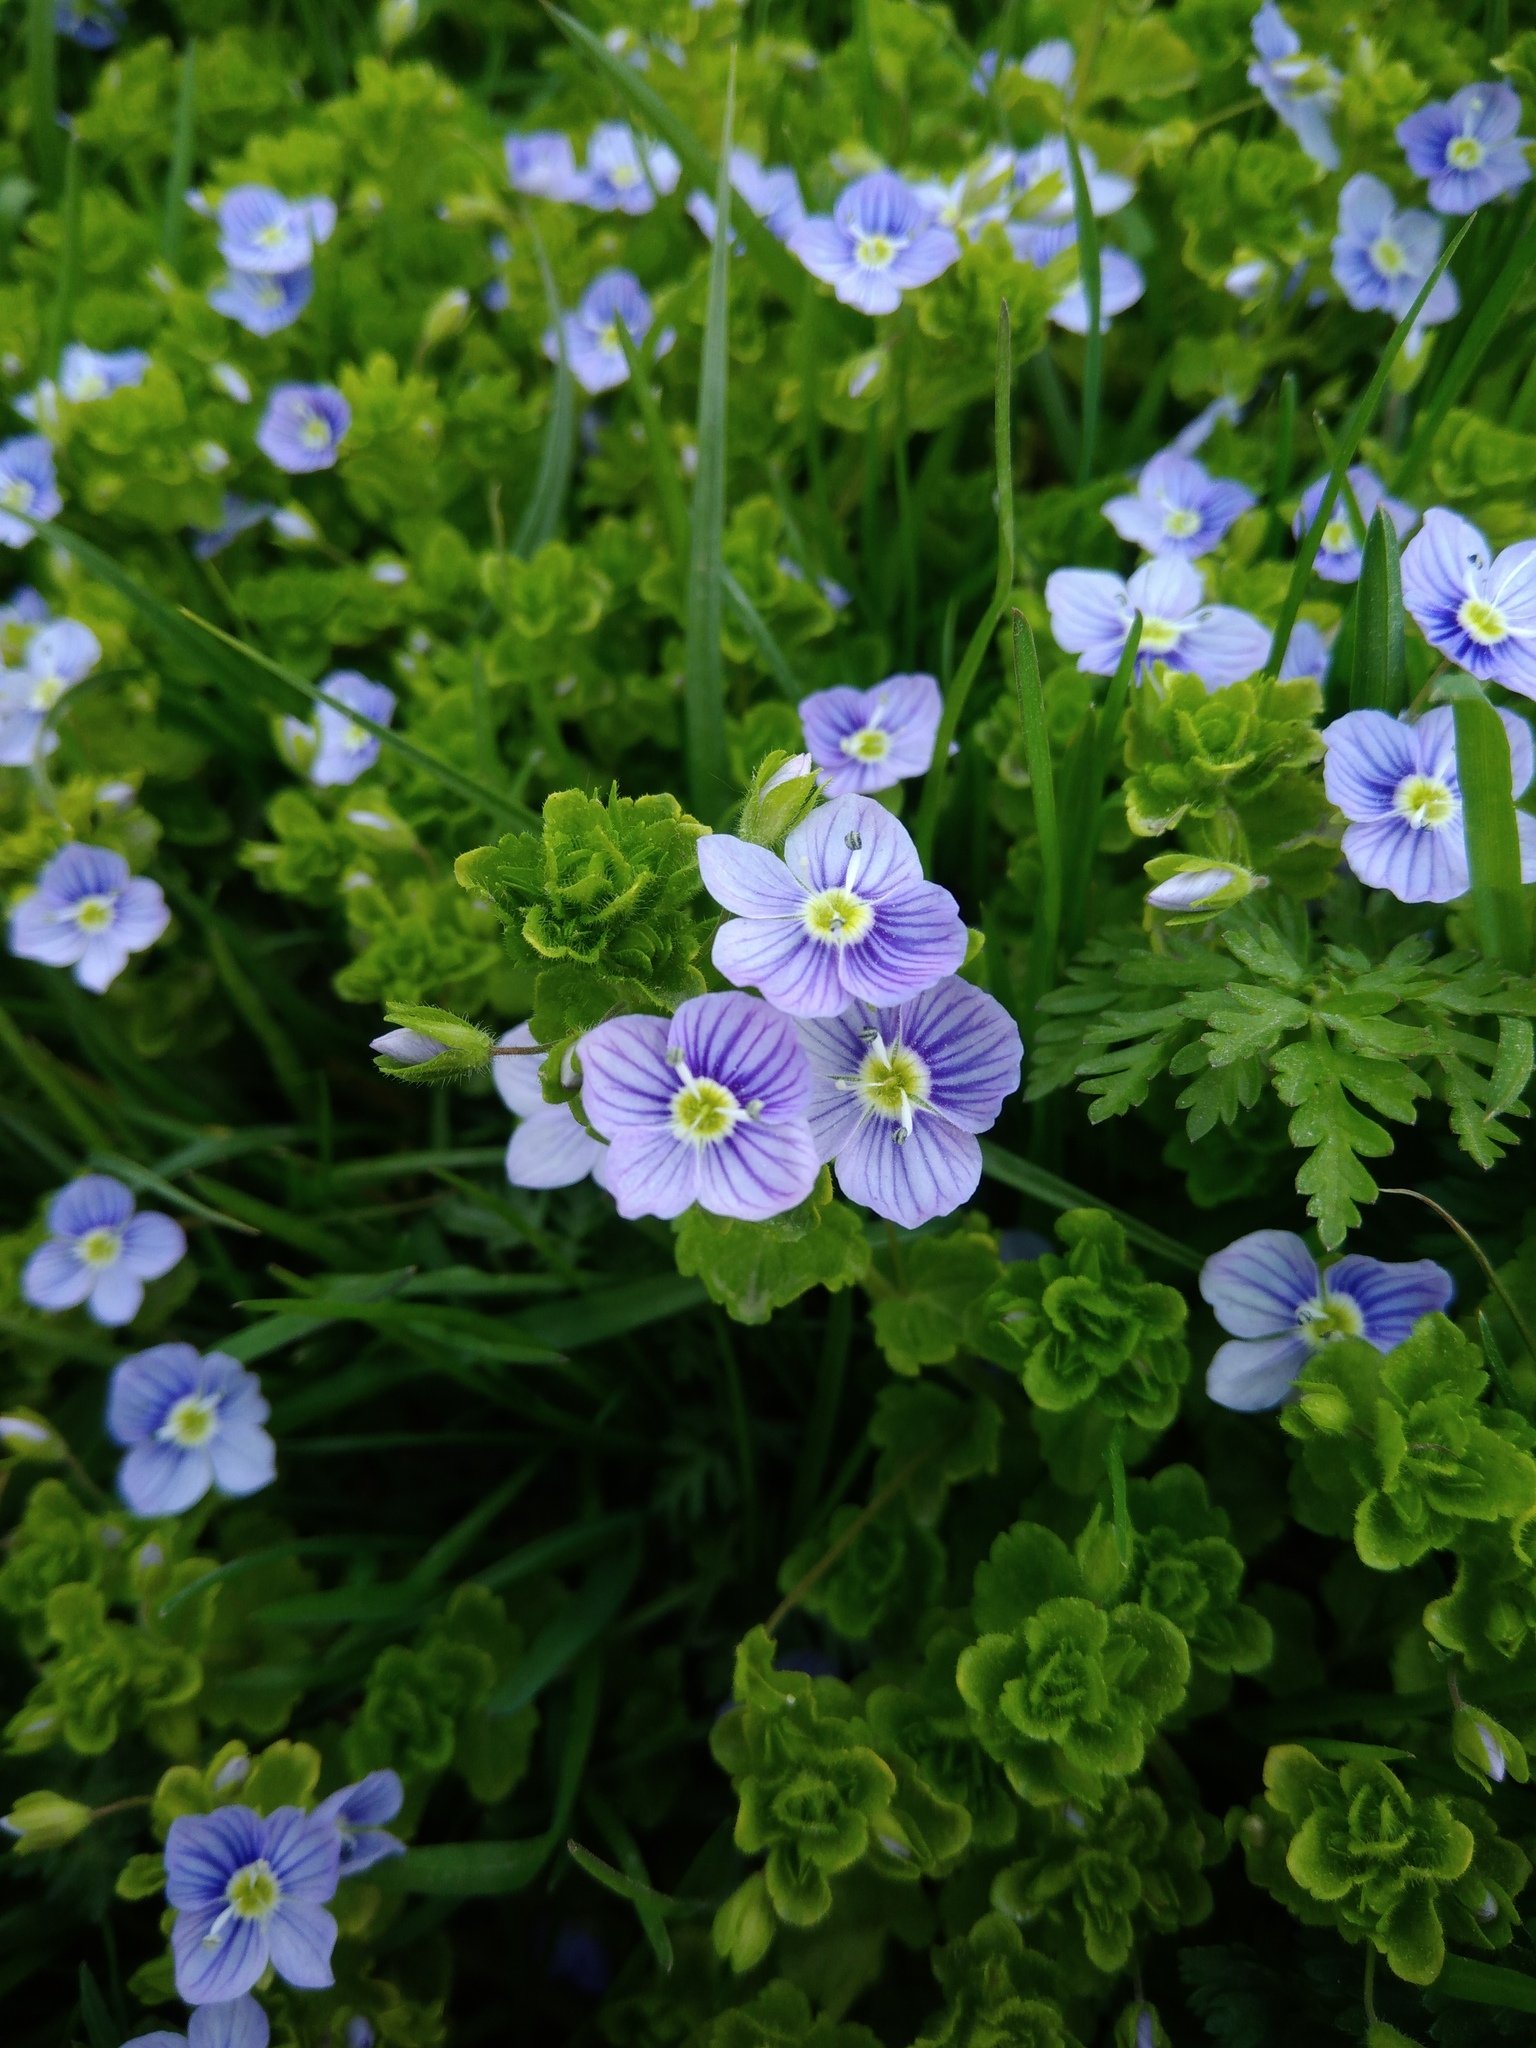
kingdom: Plantae
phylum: Tracheophyta
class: Magnoliopsida
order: Lamiales
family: Plantaginaceae
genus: Veronica
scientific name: Veronica filiformis
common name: Slender speedwell
